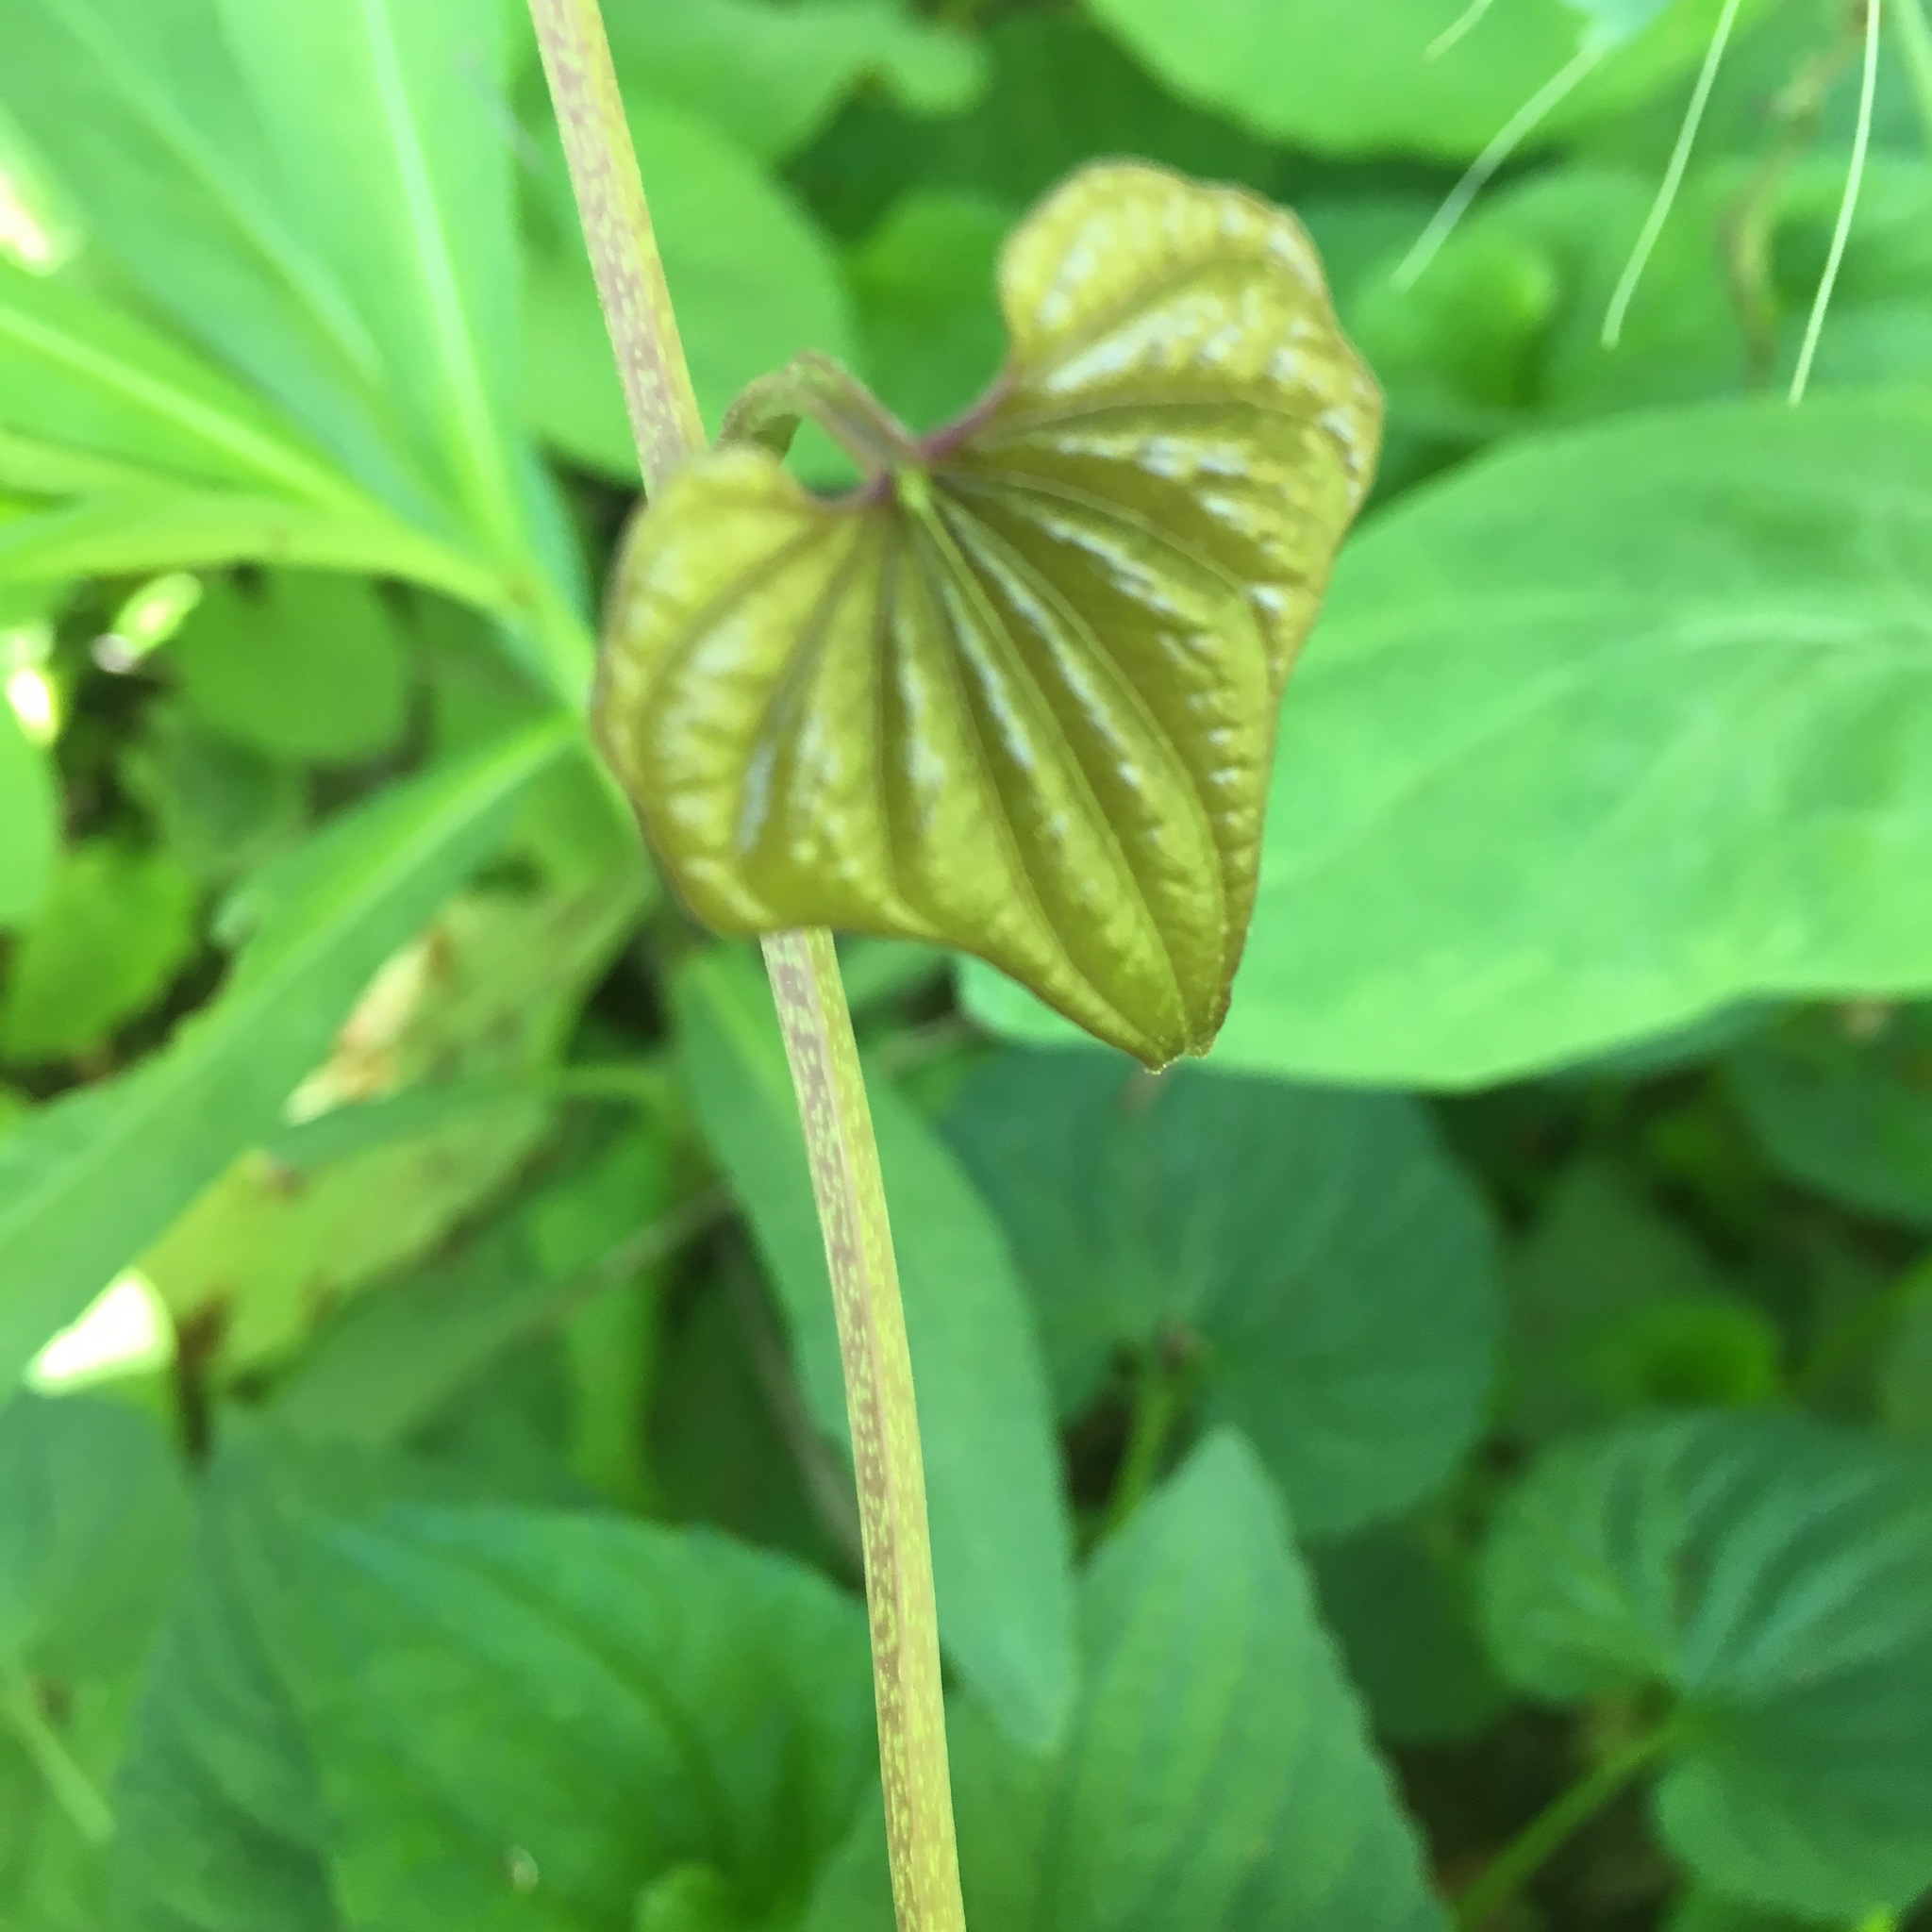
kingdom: Plantae
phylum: Tracheophyta
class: Liliopsida
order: Dioscoreales
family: Dioscoreaceae
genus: Dioscorea
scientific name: Dioscorea polystachya
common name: Chinese yam
